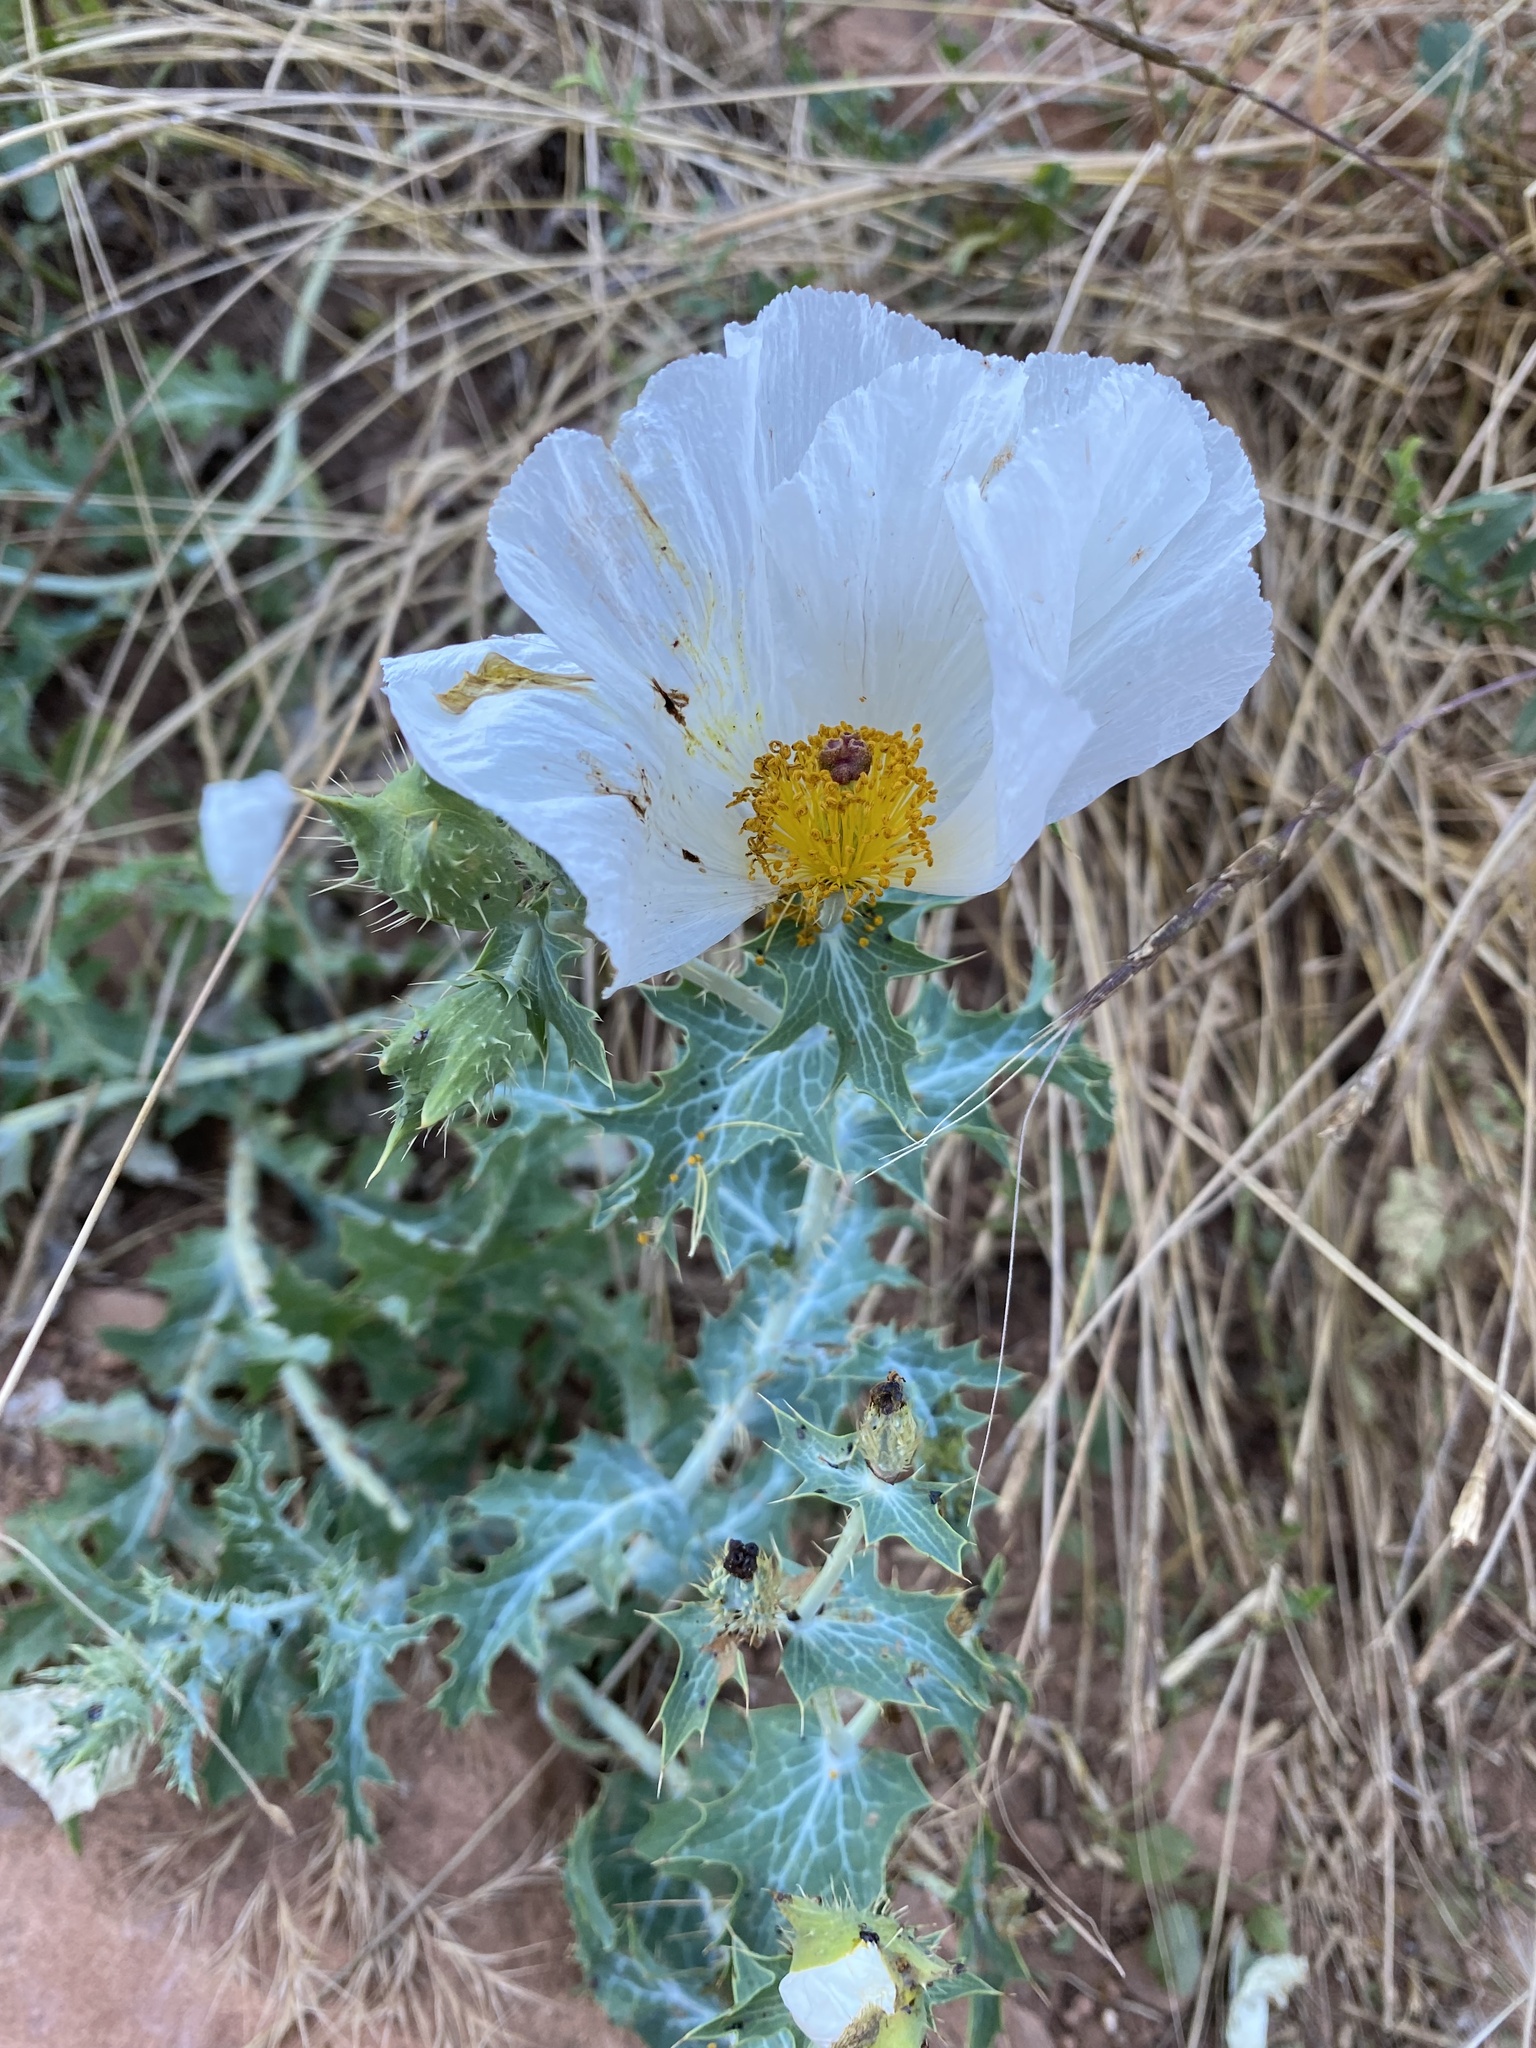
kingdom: Plantae
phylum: Tracheophyta
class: Magnoliopsida
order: Ranunculales
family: Papaveraceae
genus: Argemone
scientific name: Argemone polyanthemos
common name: Plains prickly-poppy
